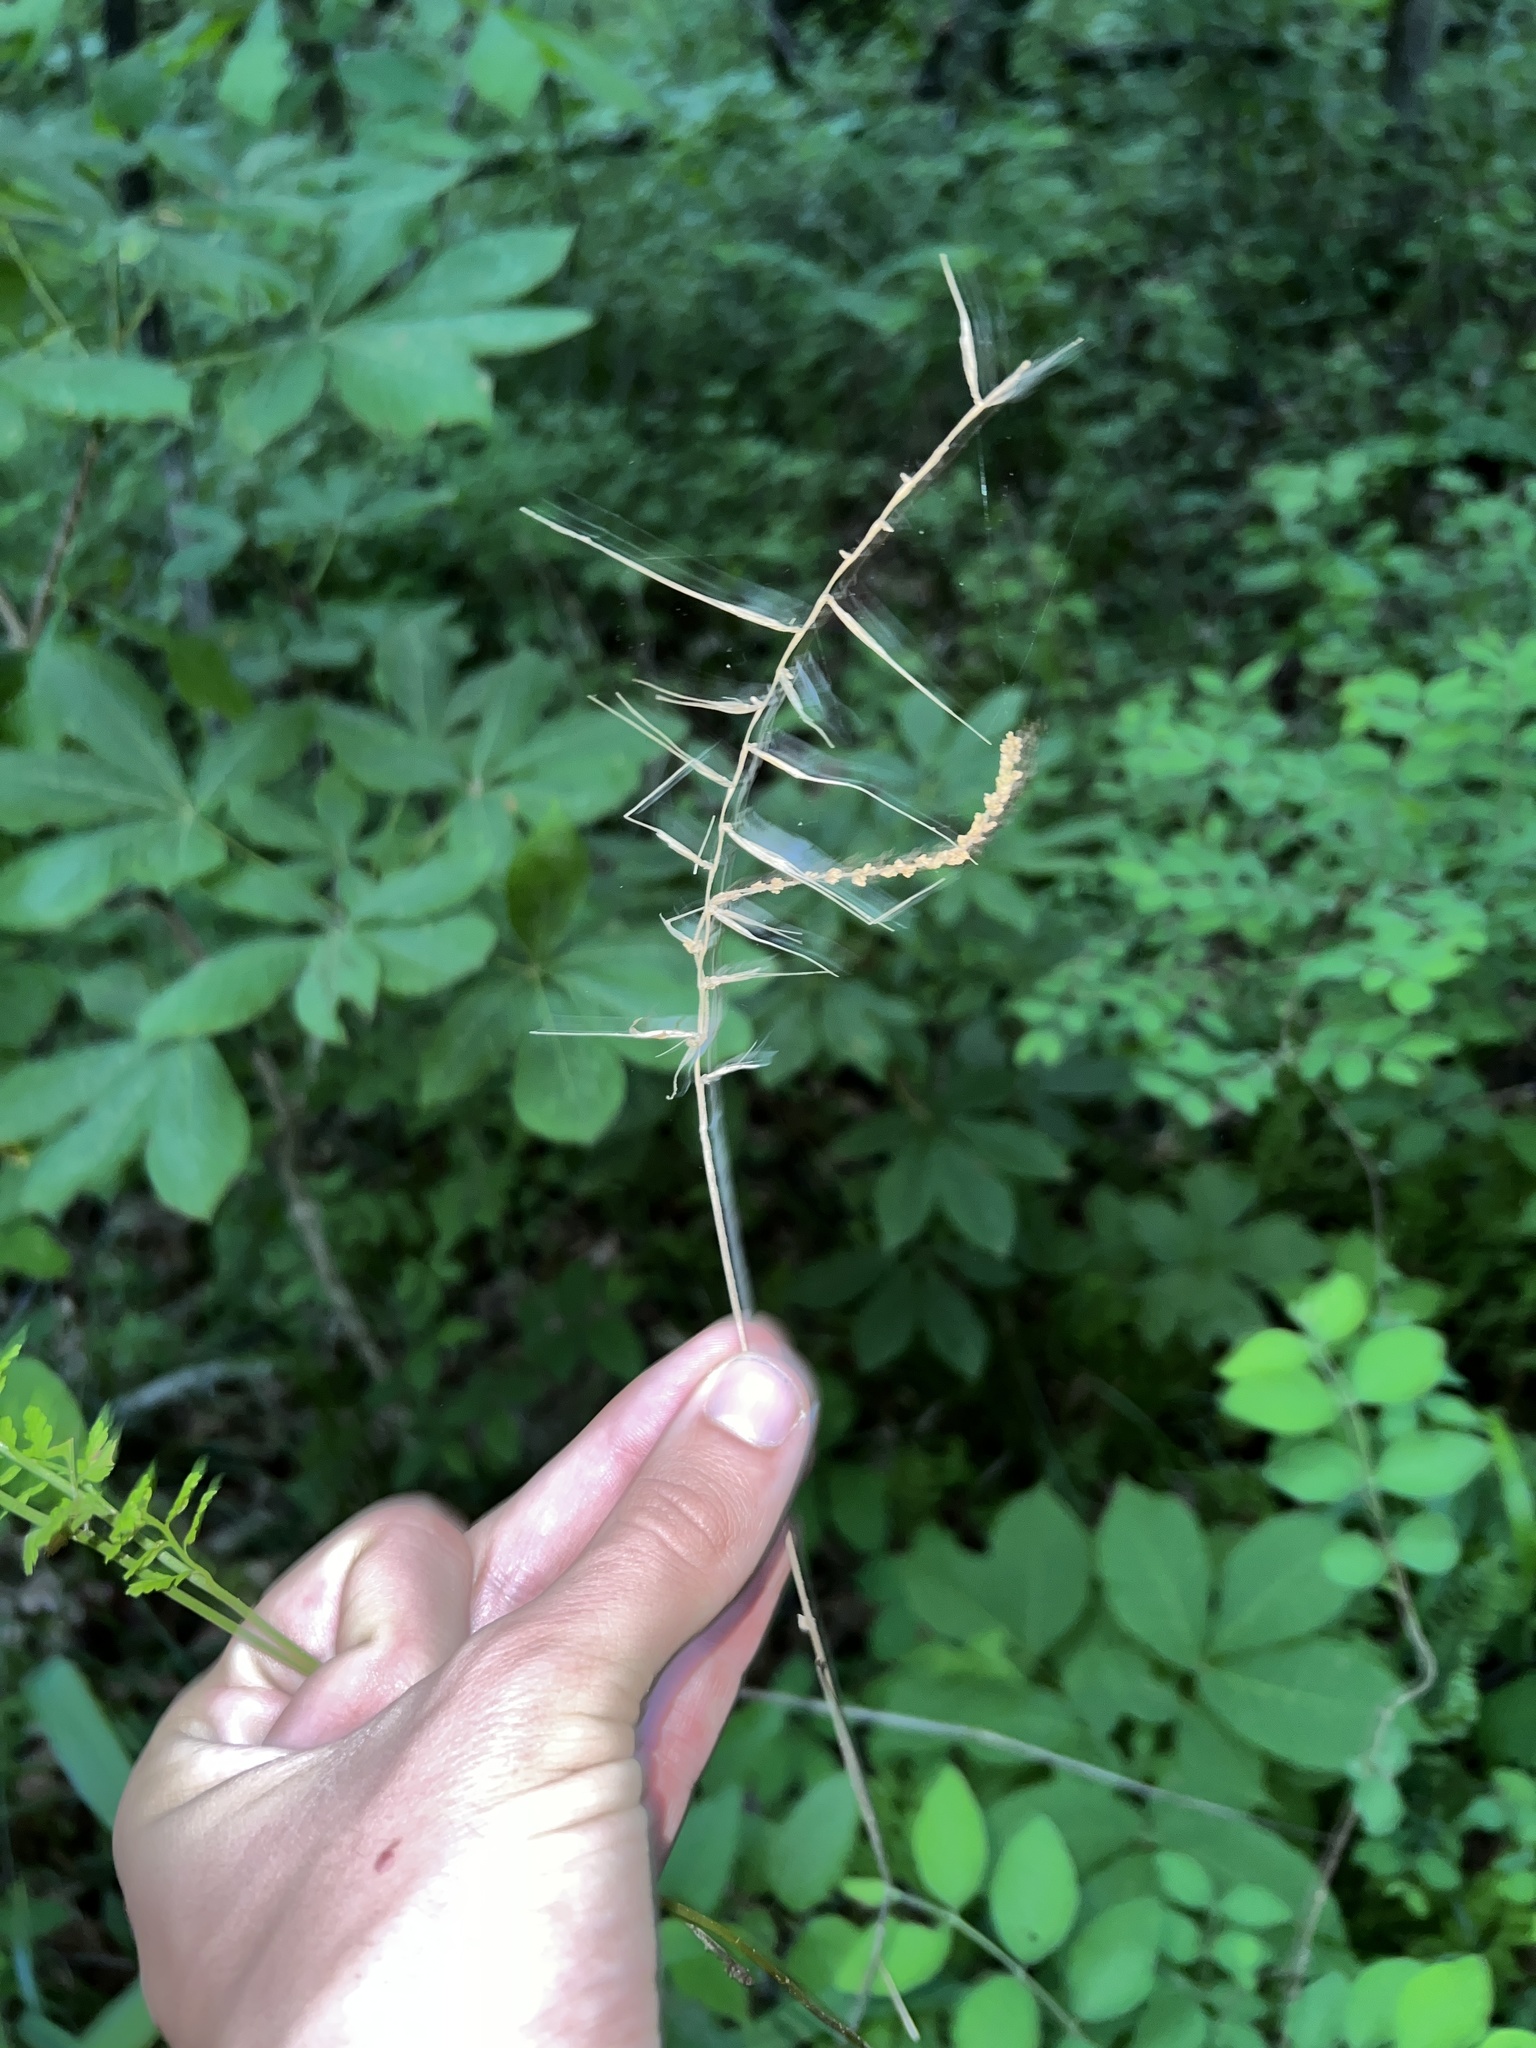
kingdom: Plantae
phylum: Tracheophyta
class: Liliopsida
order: Poales
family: Poaceae
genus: Elymus
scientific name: Elymus hystrix
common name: Bottlebrush grass
